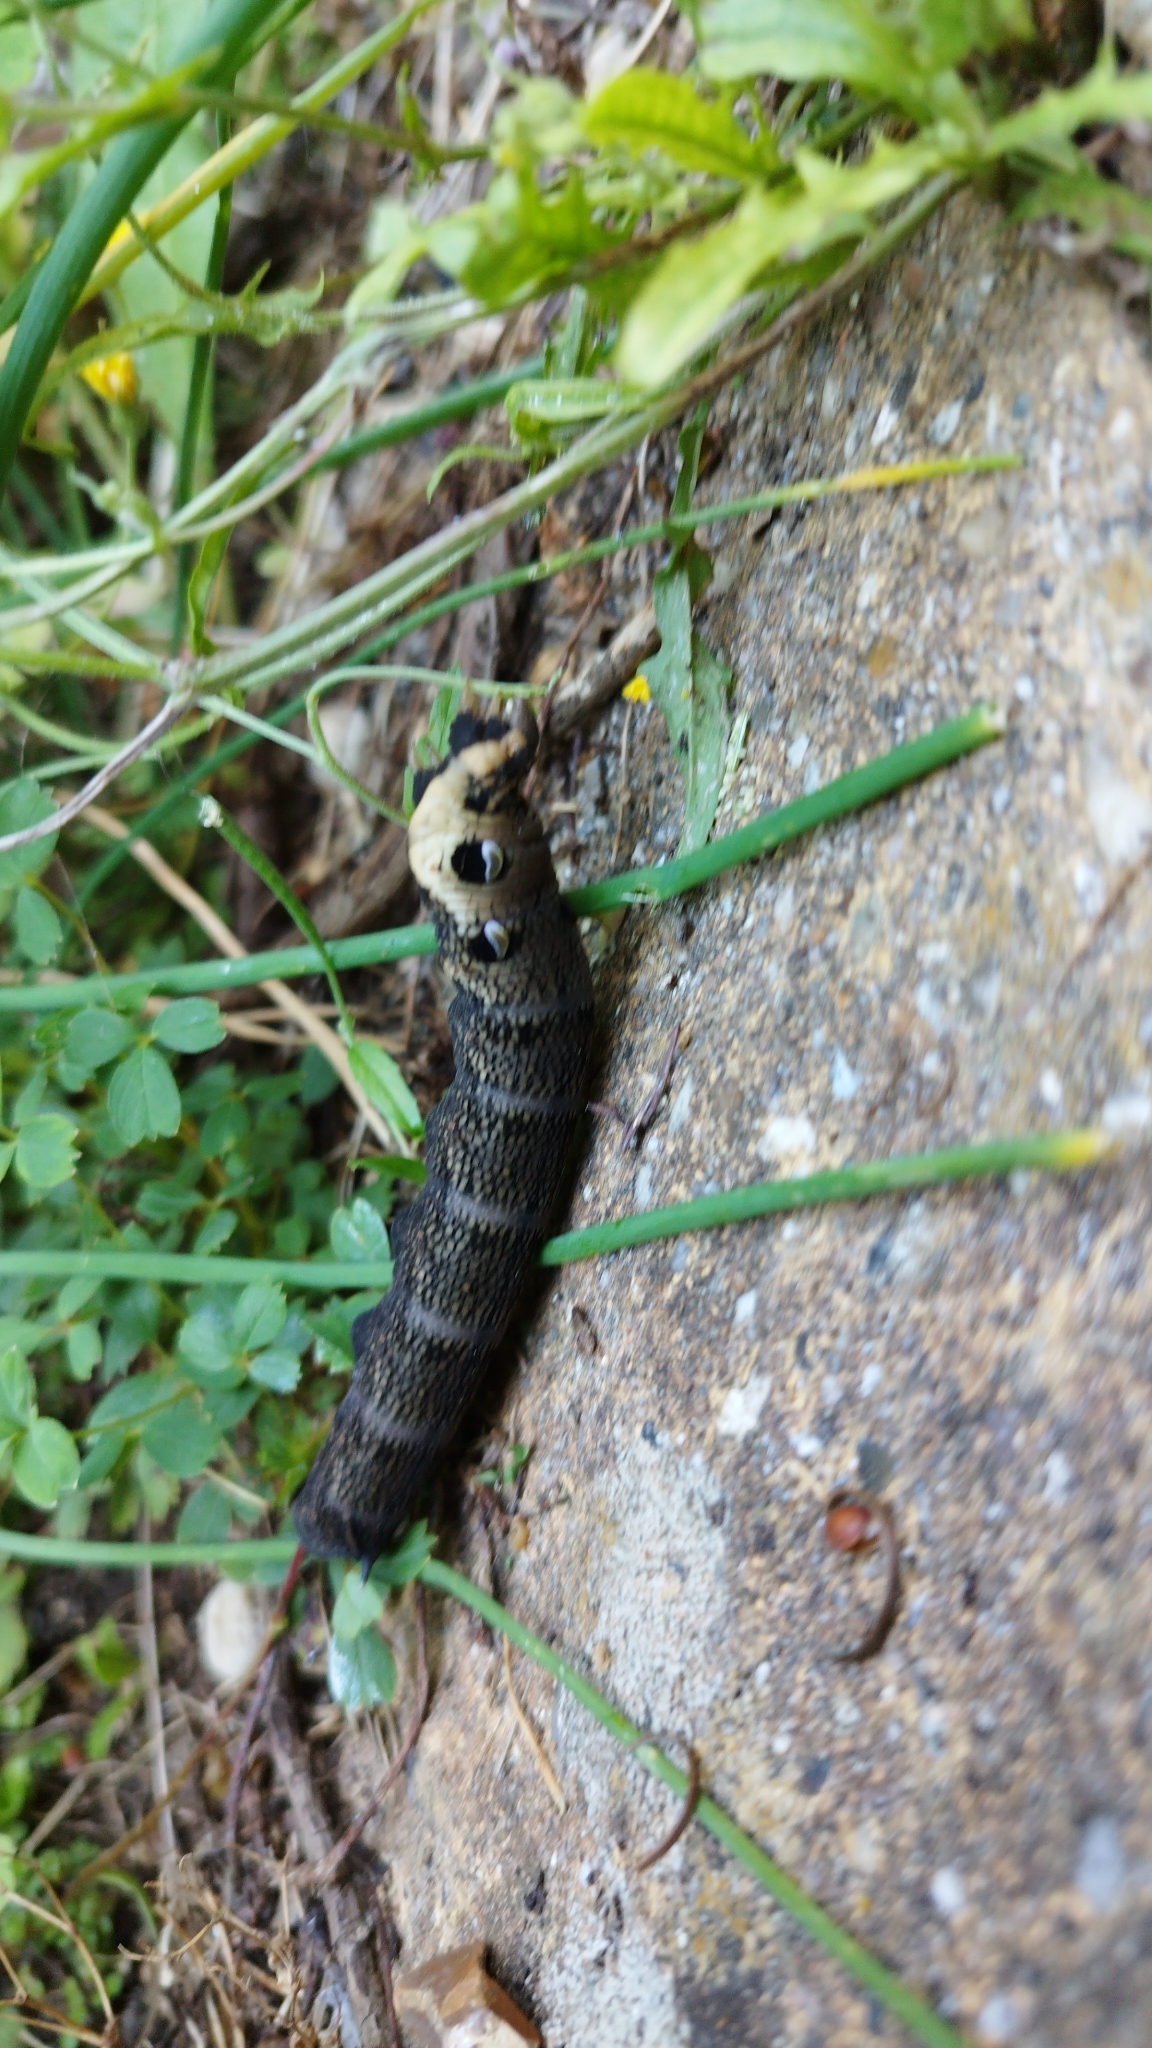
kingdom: Animalia
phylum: Arthropoda
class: Insecta
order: Lepidoptera
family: Sphingidae
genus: Deilephila
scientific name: Deilephila elpenor
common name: Elephant hawk-moth
